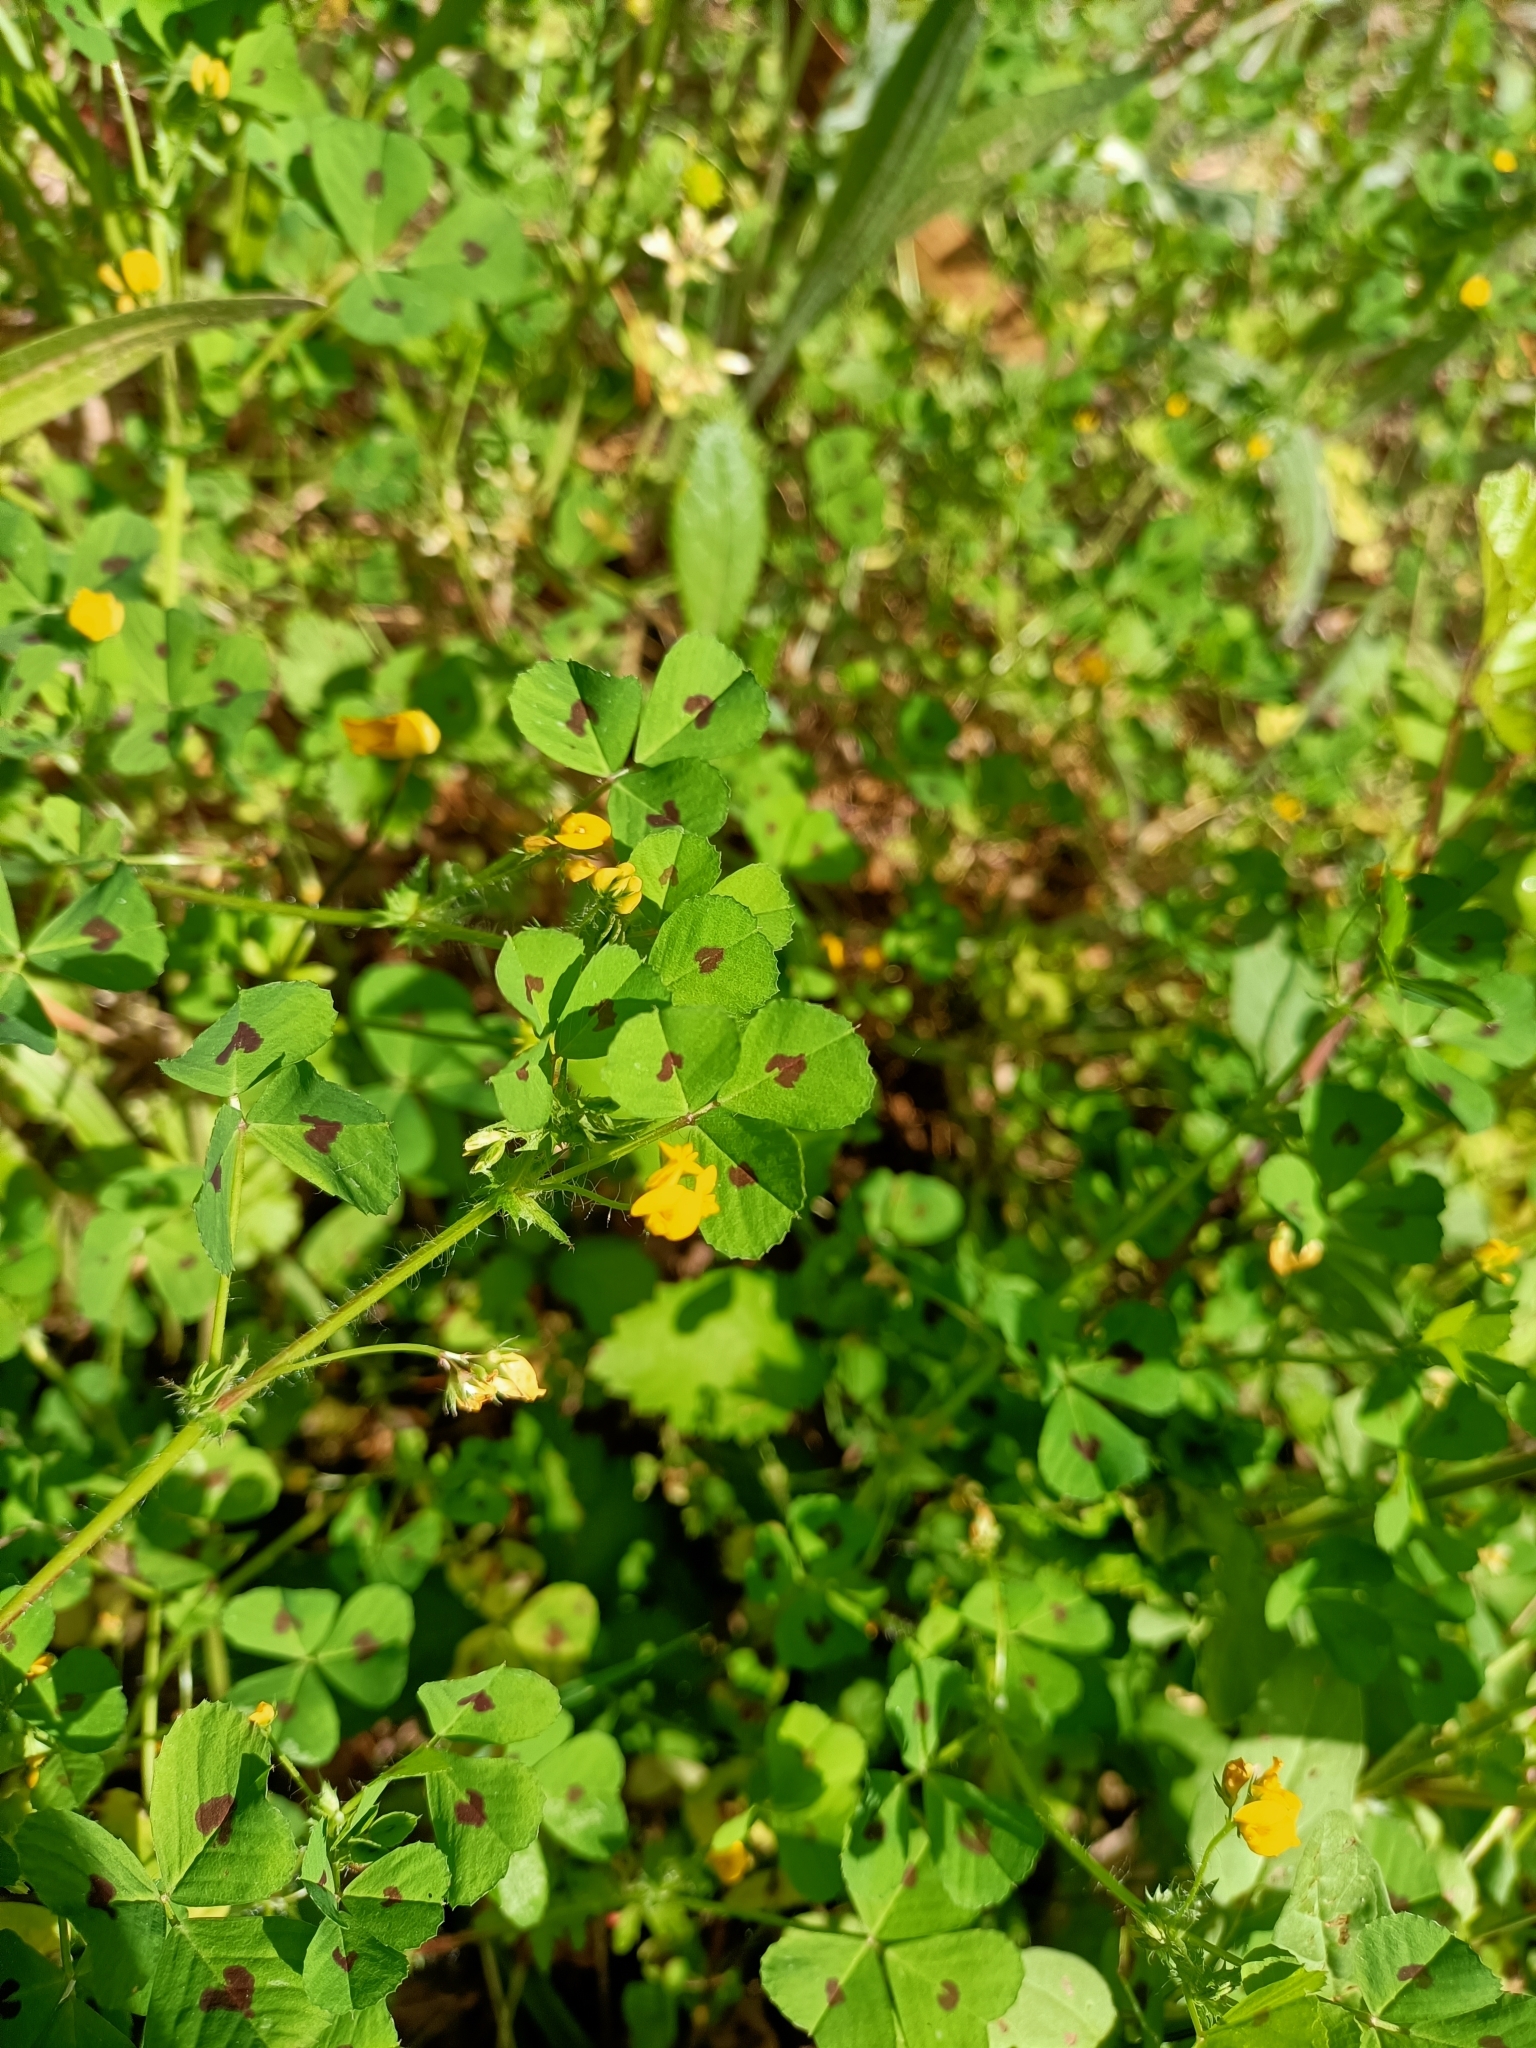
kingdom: Plantae
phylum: Tracheophyta
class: Magnoliopsida
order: Fabales
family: Fabaceae
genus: Medicago
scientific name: Medicago arabica
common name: Spotted medick
